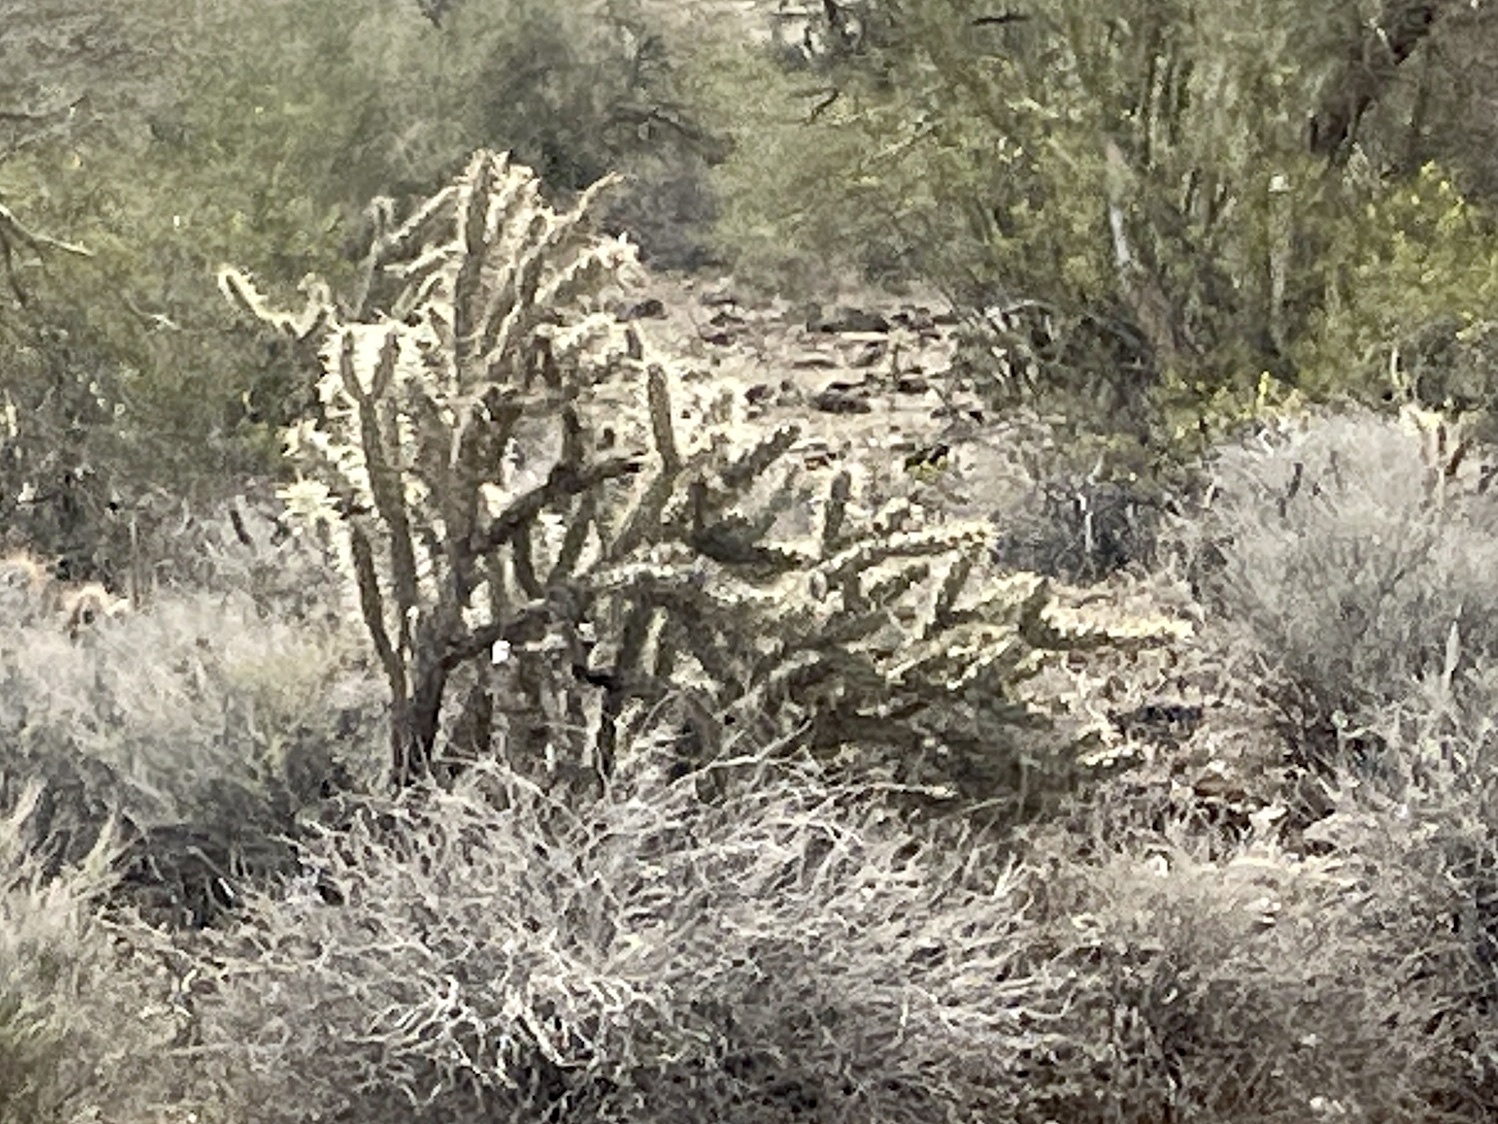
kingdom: Plantae
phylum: Tracheophyta
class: Magnoliopsida
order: Caryophyllales
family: Cactaceae
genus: Cylindropuntia
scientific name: Cylindropuntia acanthocarpa
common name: Buckhorn cholla
